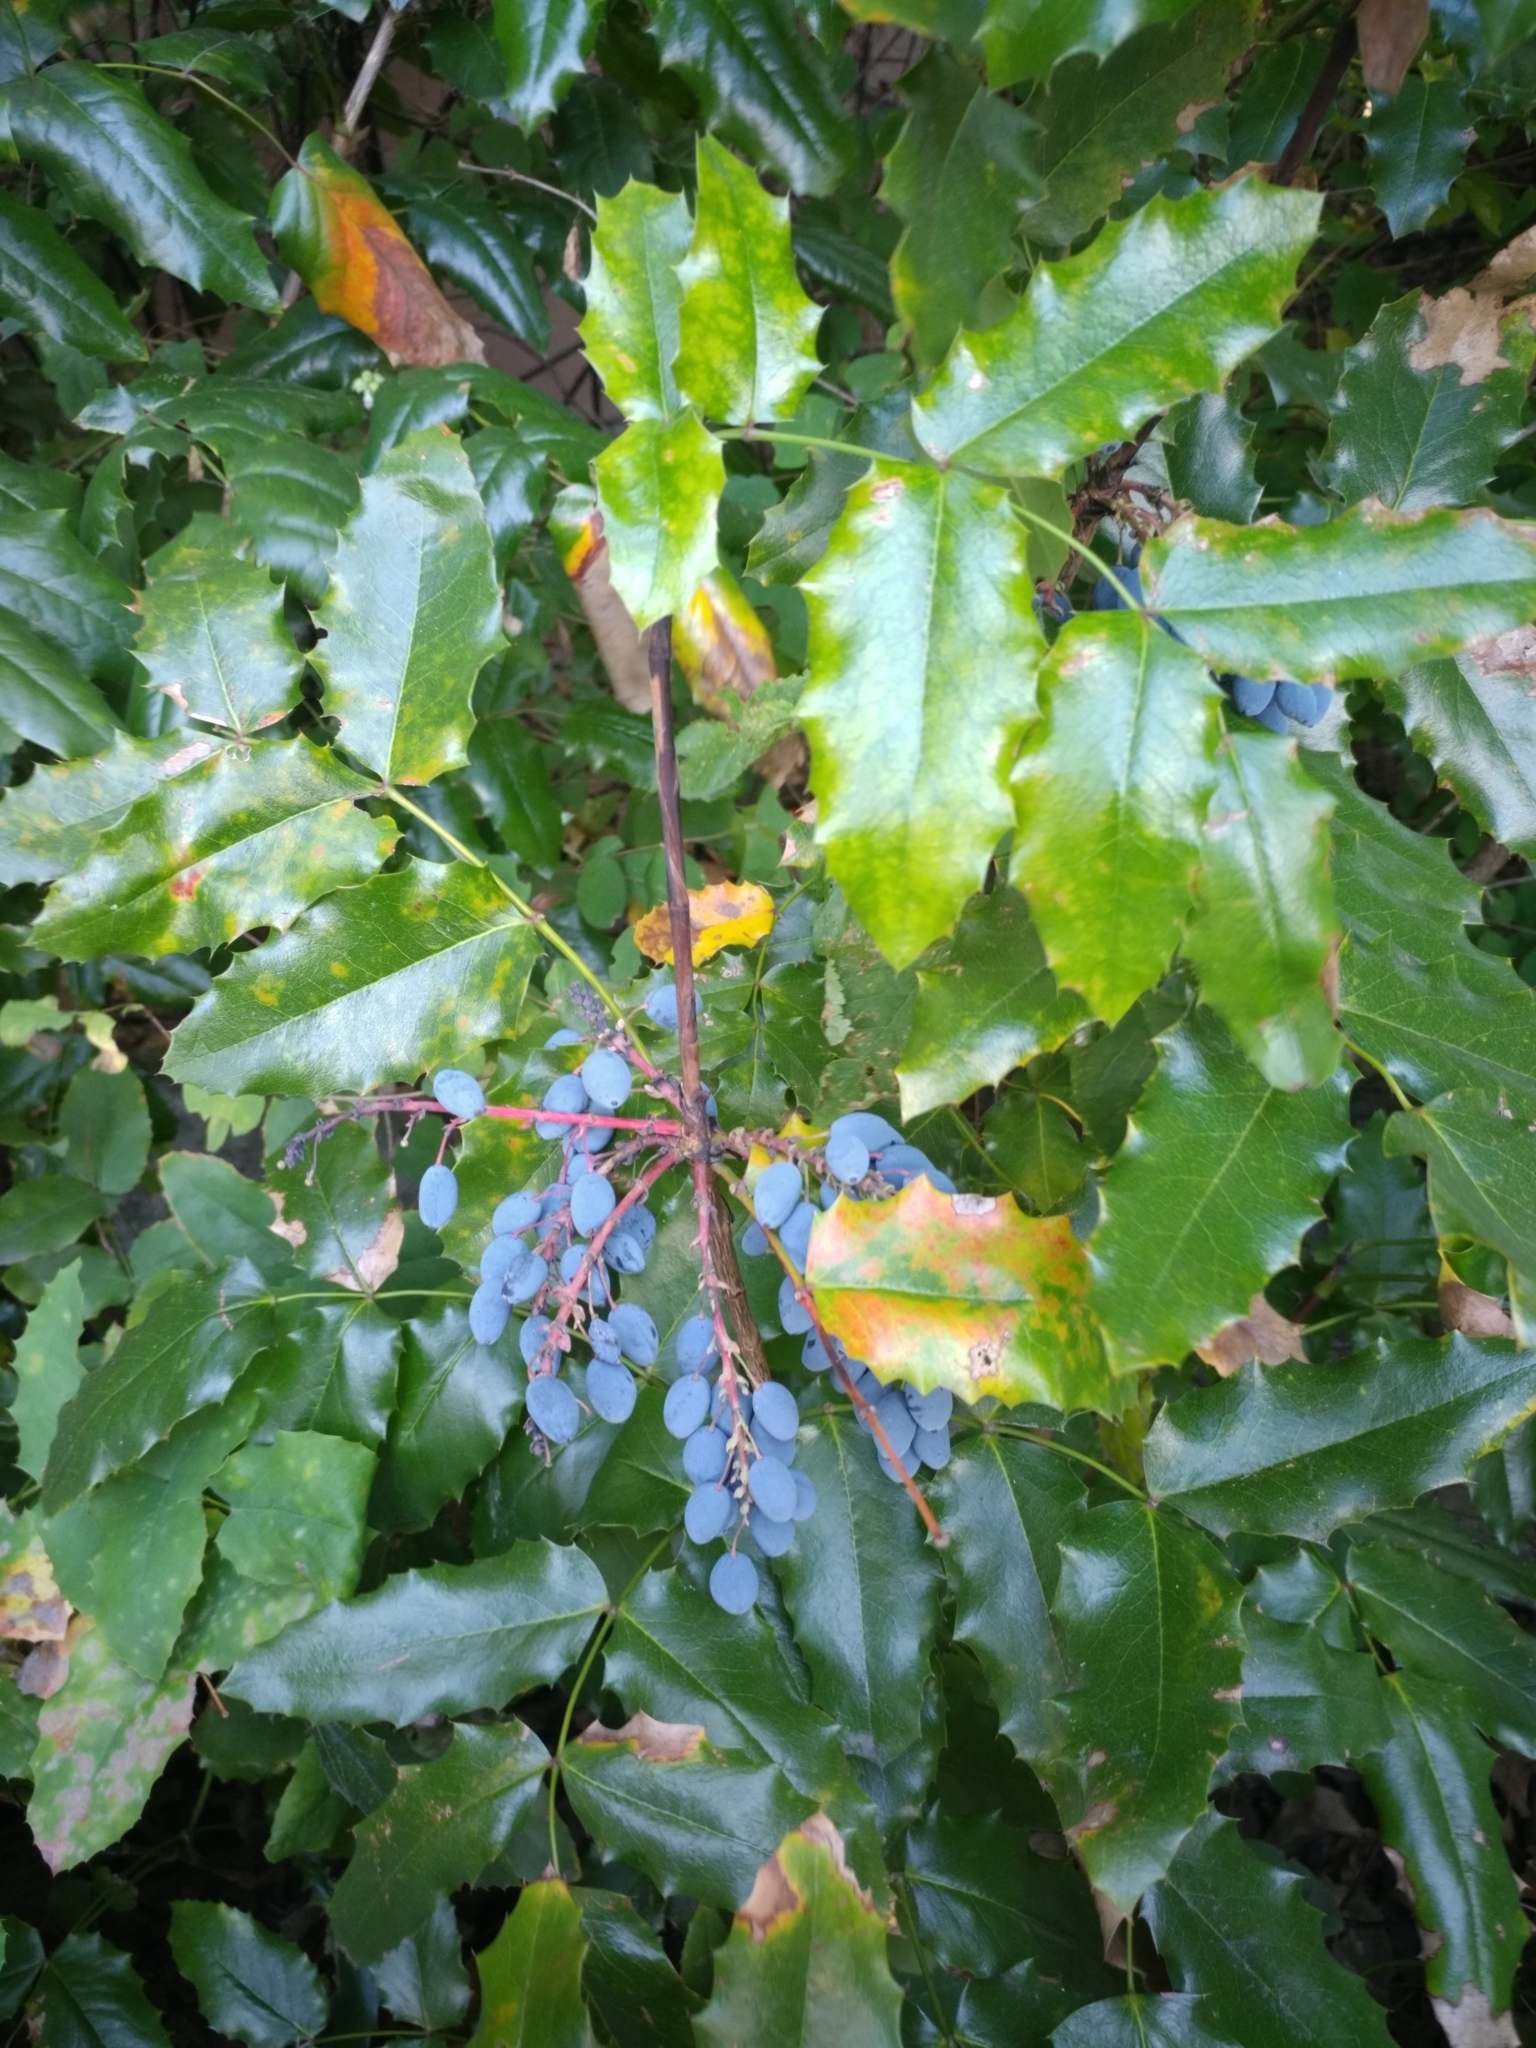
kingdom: Plantae
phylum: Tracheophyta
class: Magnoliopsida
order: Ranunculales
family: Berberidaceae
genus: Mahonia
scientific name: Mahonia aquifolium
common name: Oregon-grape
